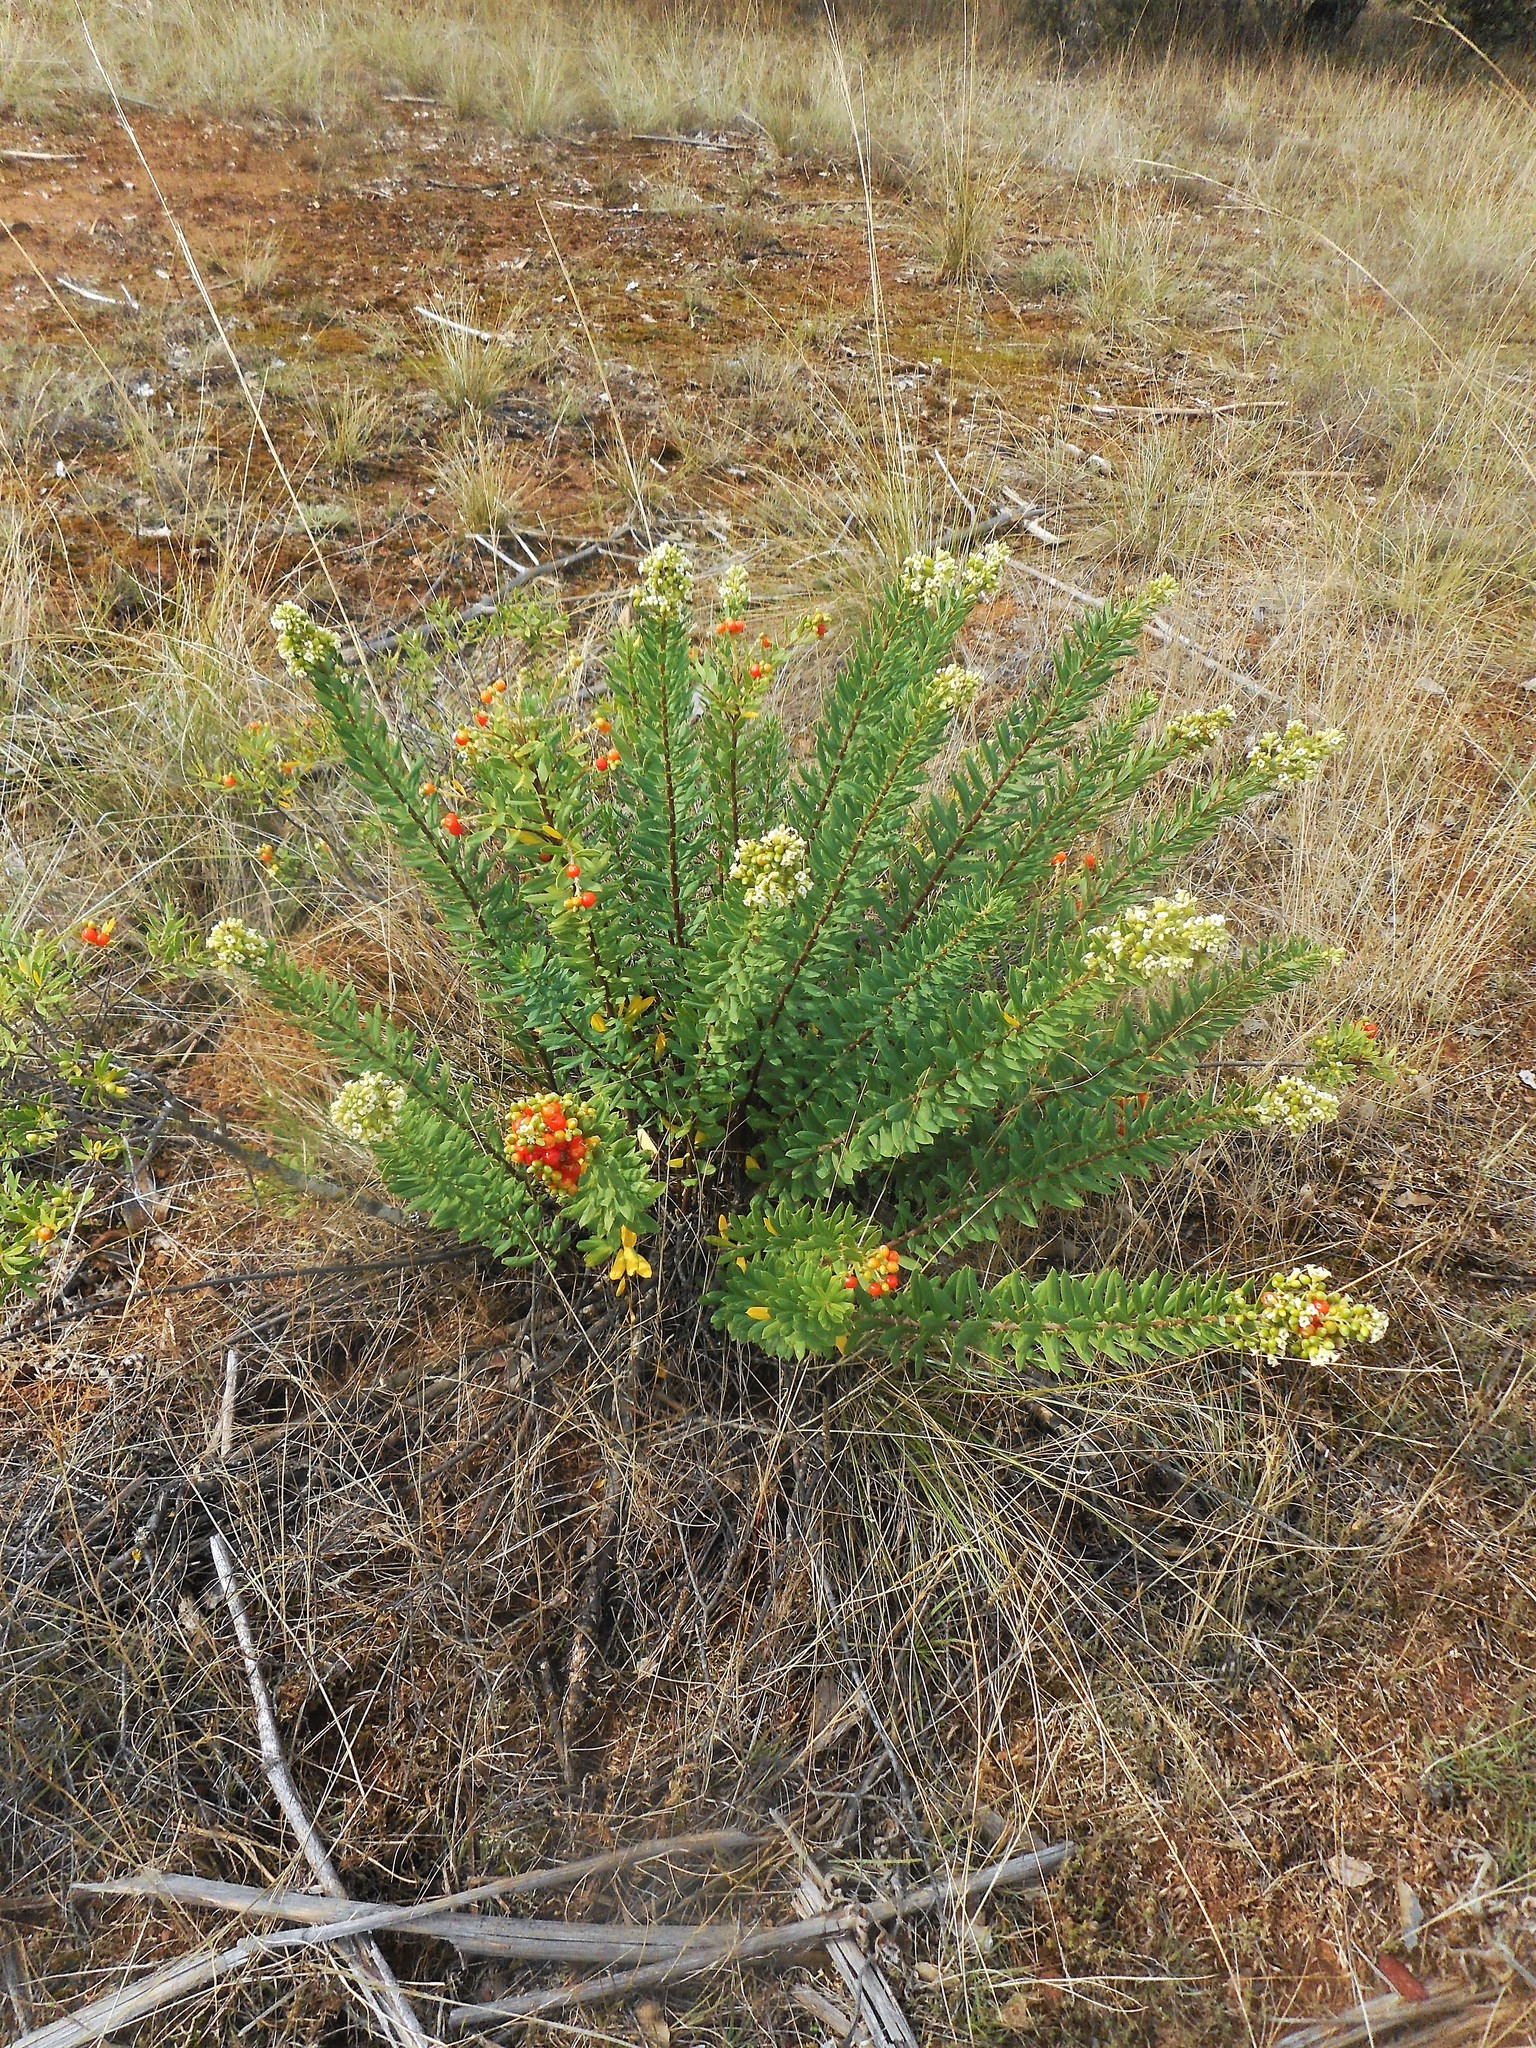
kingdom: Plantae
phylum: Tracheophyta
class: Magnoliopsida
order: Malvales
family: Thymelaeaceae
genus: Daphne
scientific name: Daphne gnidium
